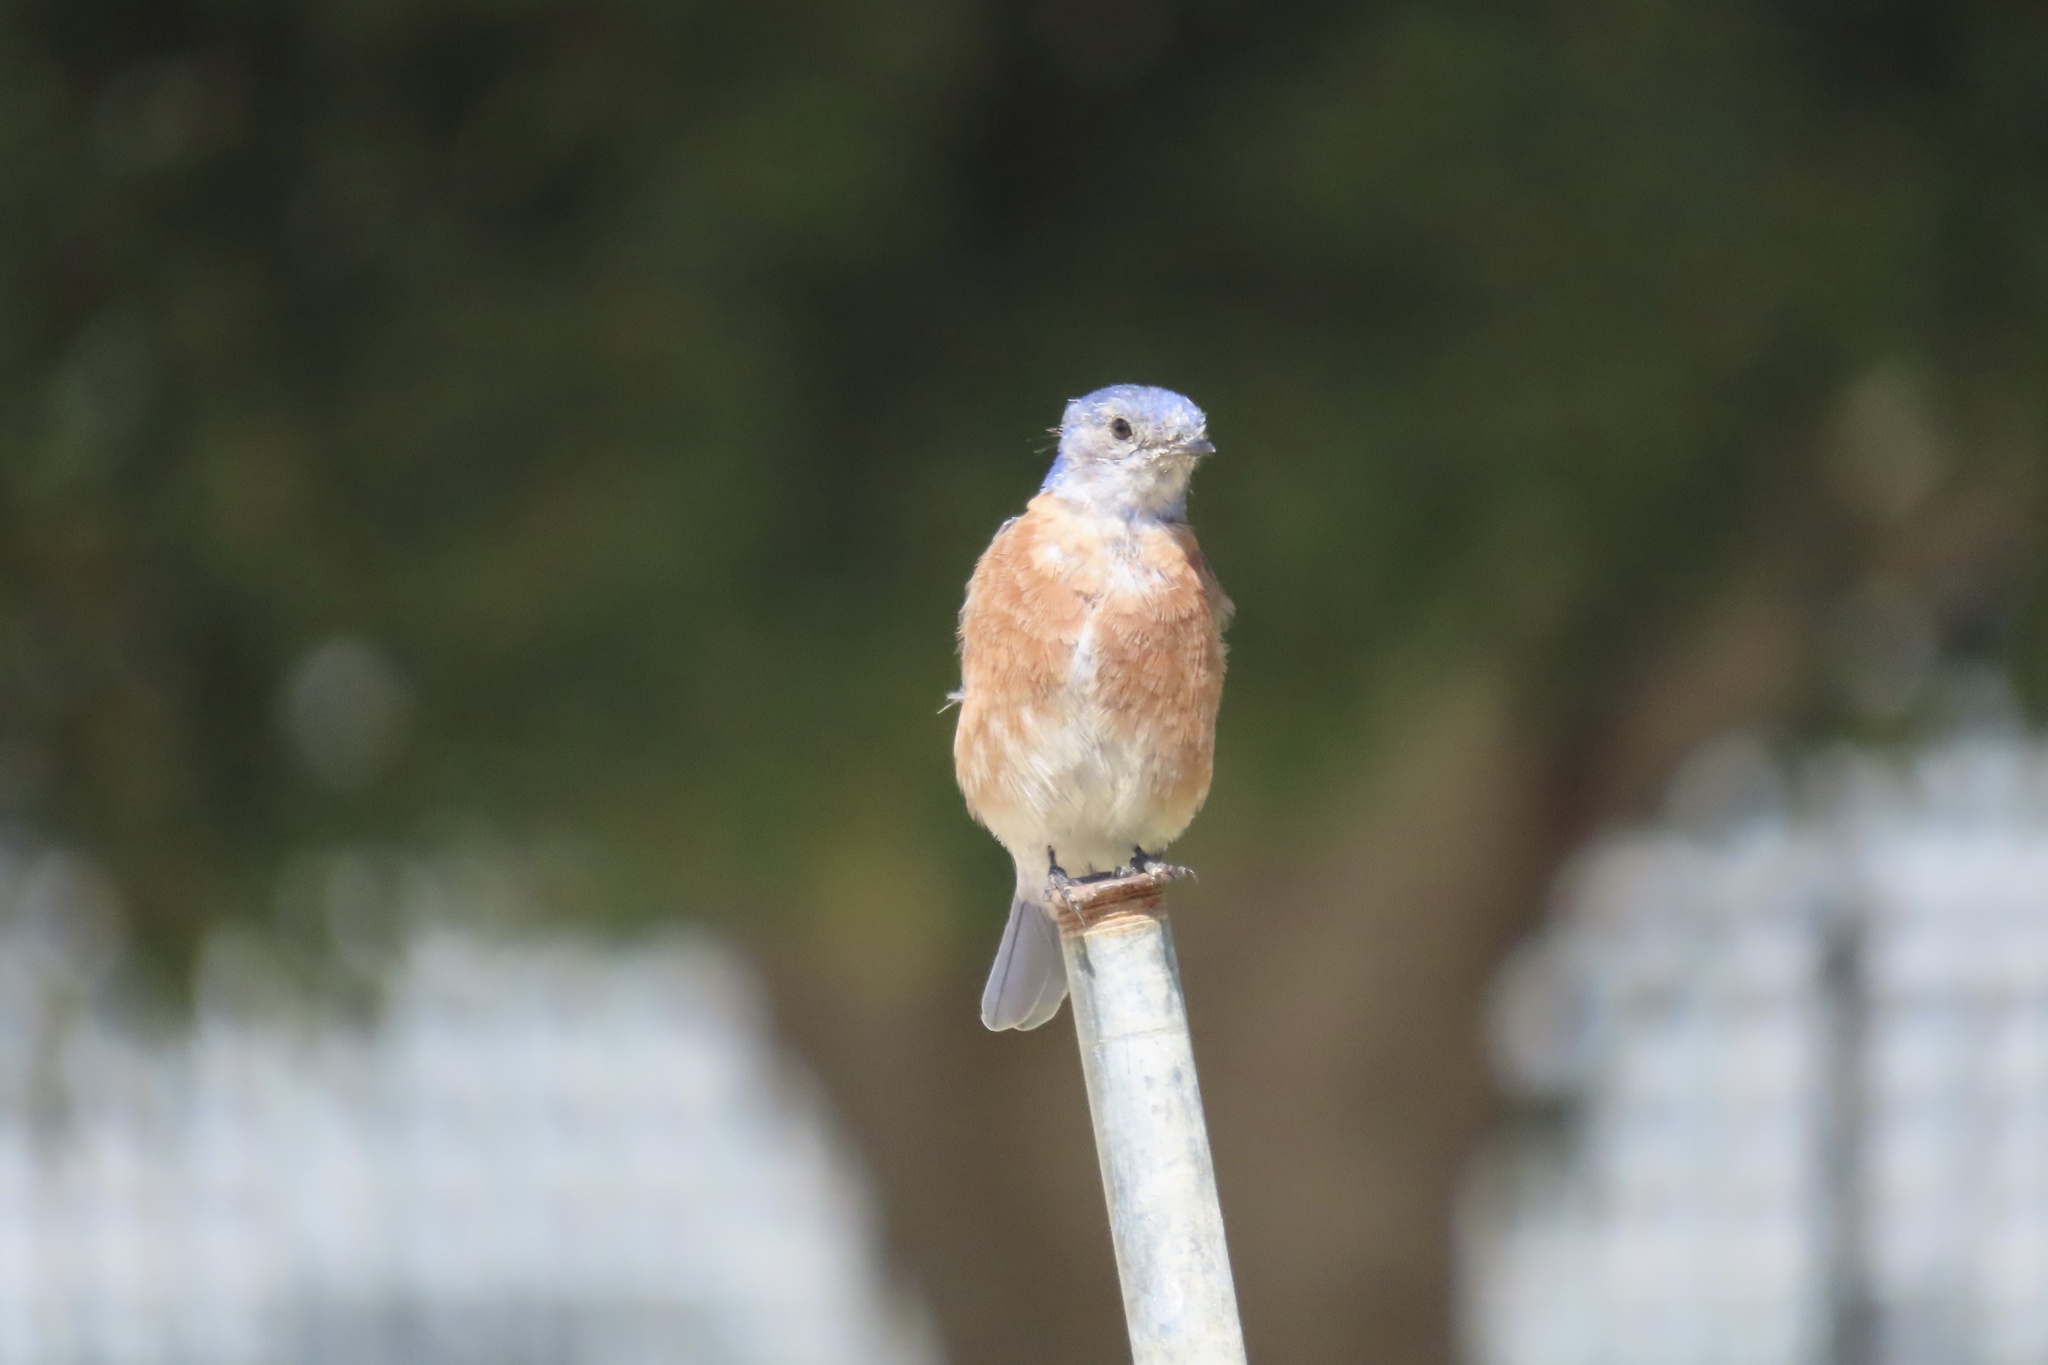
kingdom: Animalia
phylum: Chordata
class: Aves
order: Passeriformes
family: Turdidae
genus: Sialia
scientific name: Sialia mexicana
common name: Western bluebird
